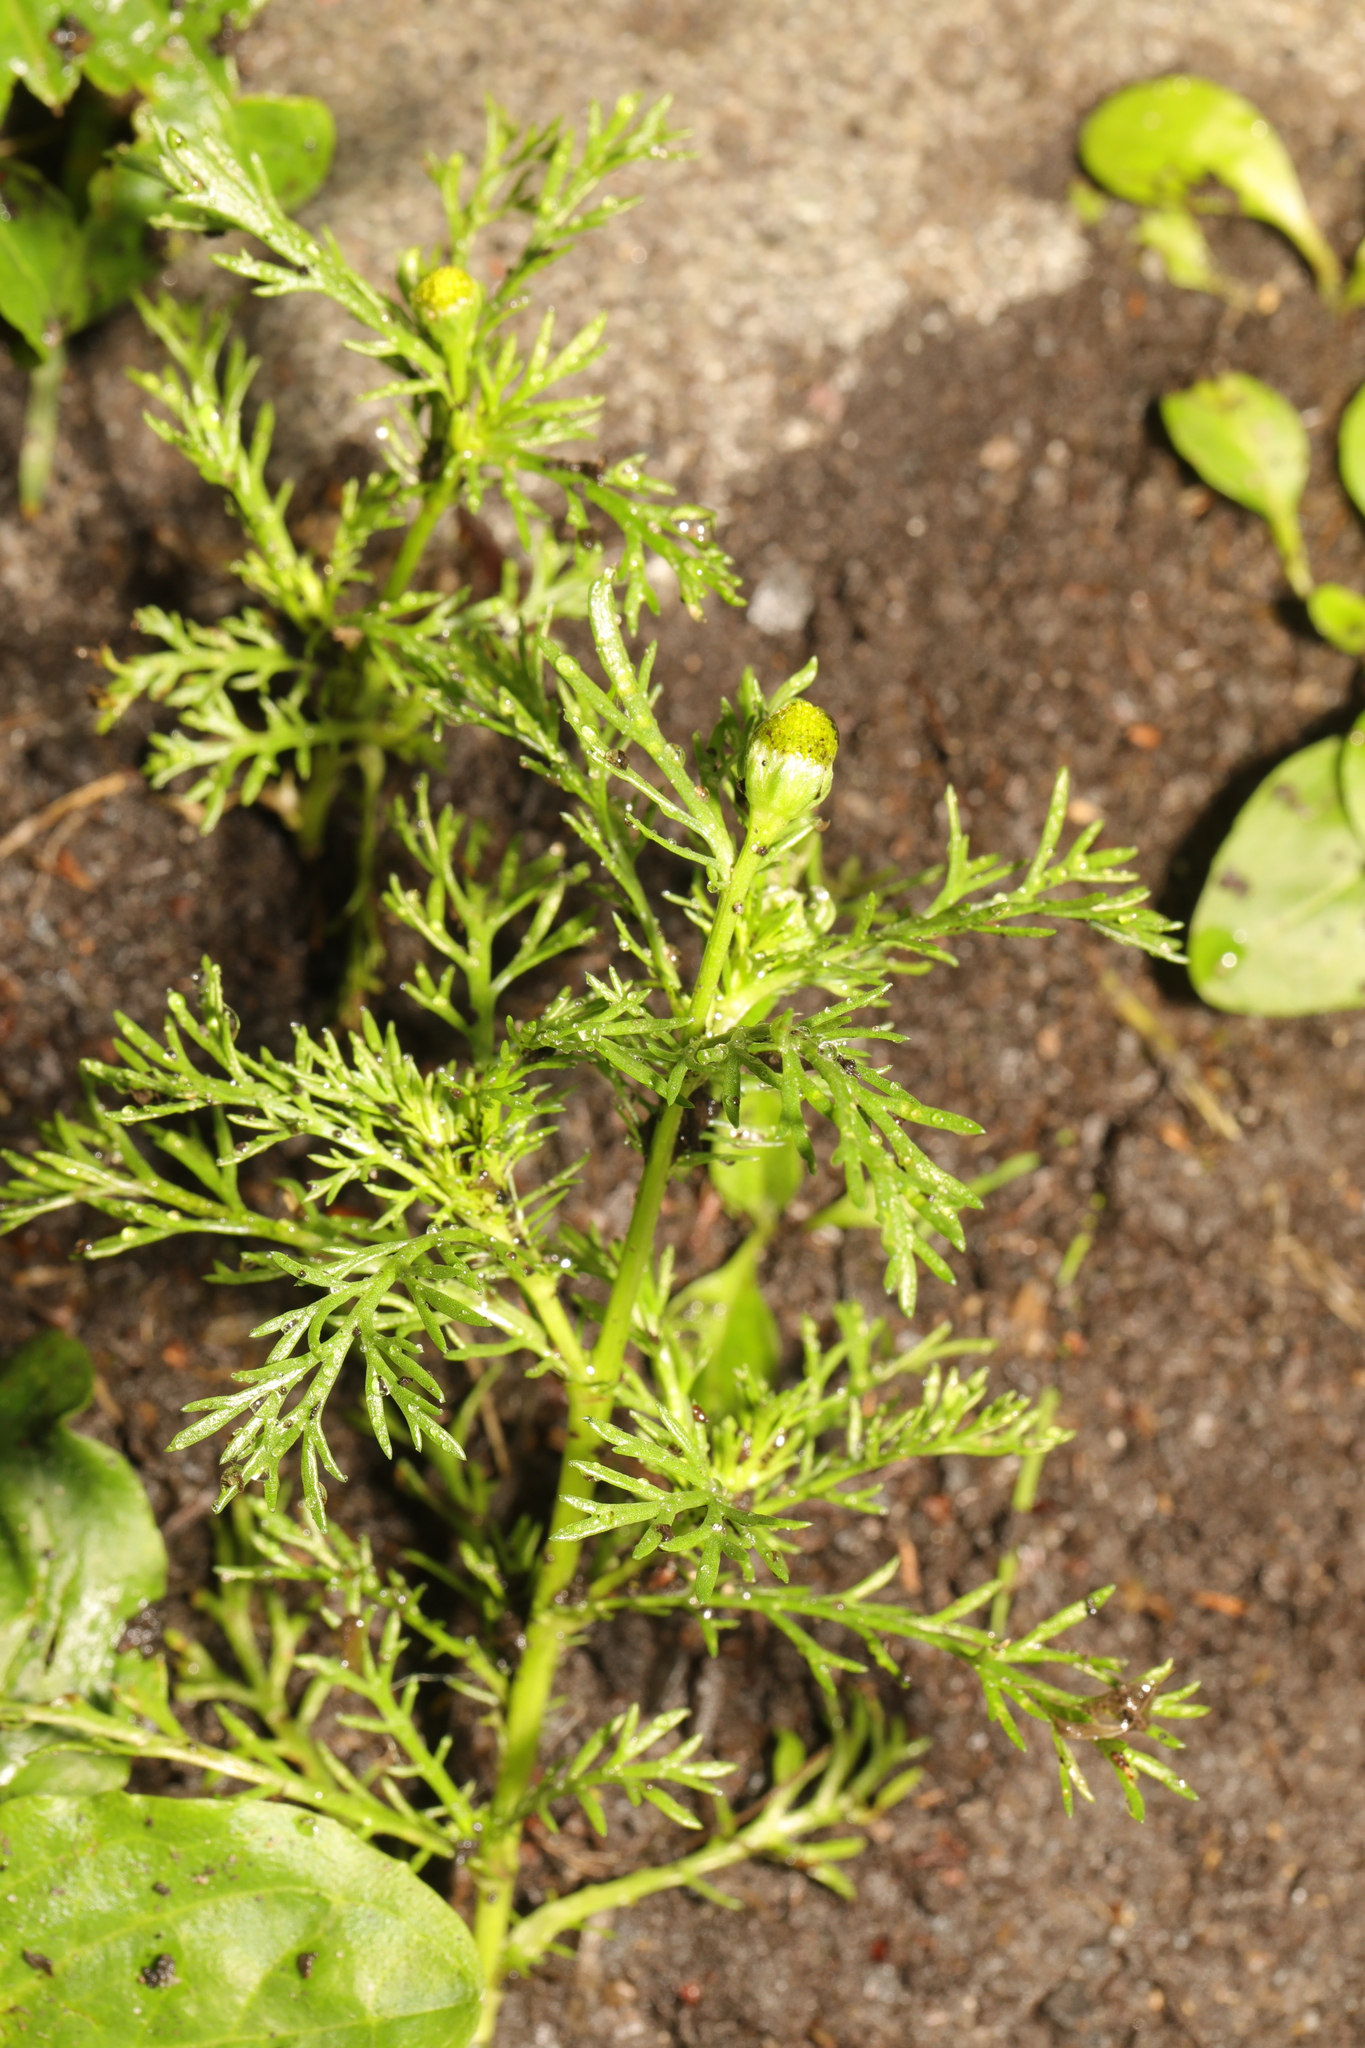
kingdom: Plantae
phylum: Tracheophyta
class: Magnoliopsida
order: Asterales
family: Asteraceae
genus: Matricaria
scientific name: Matricaria discoidea
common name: Disc mayweed
